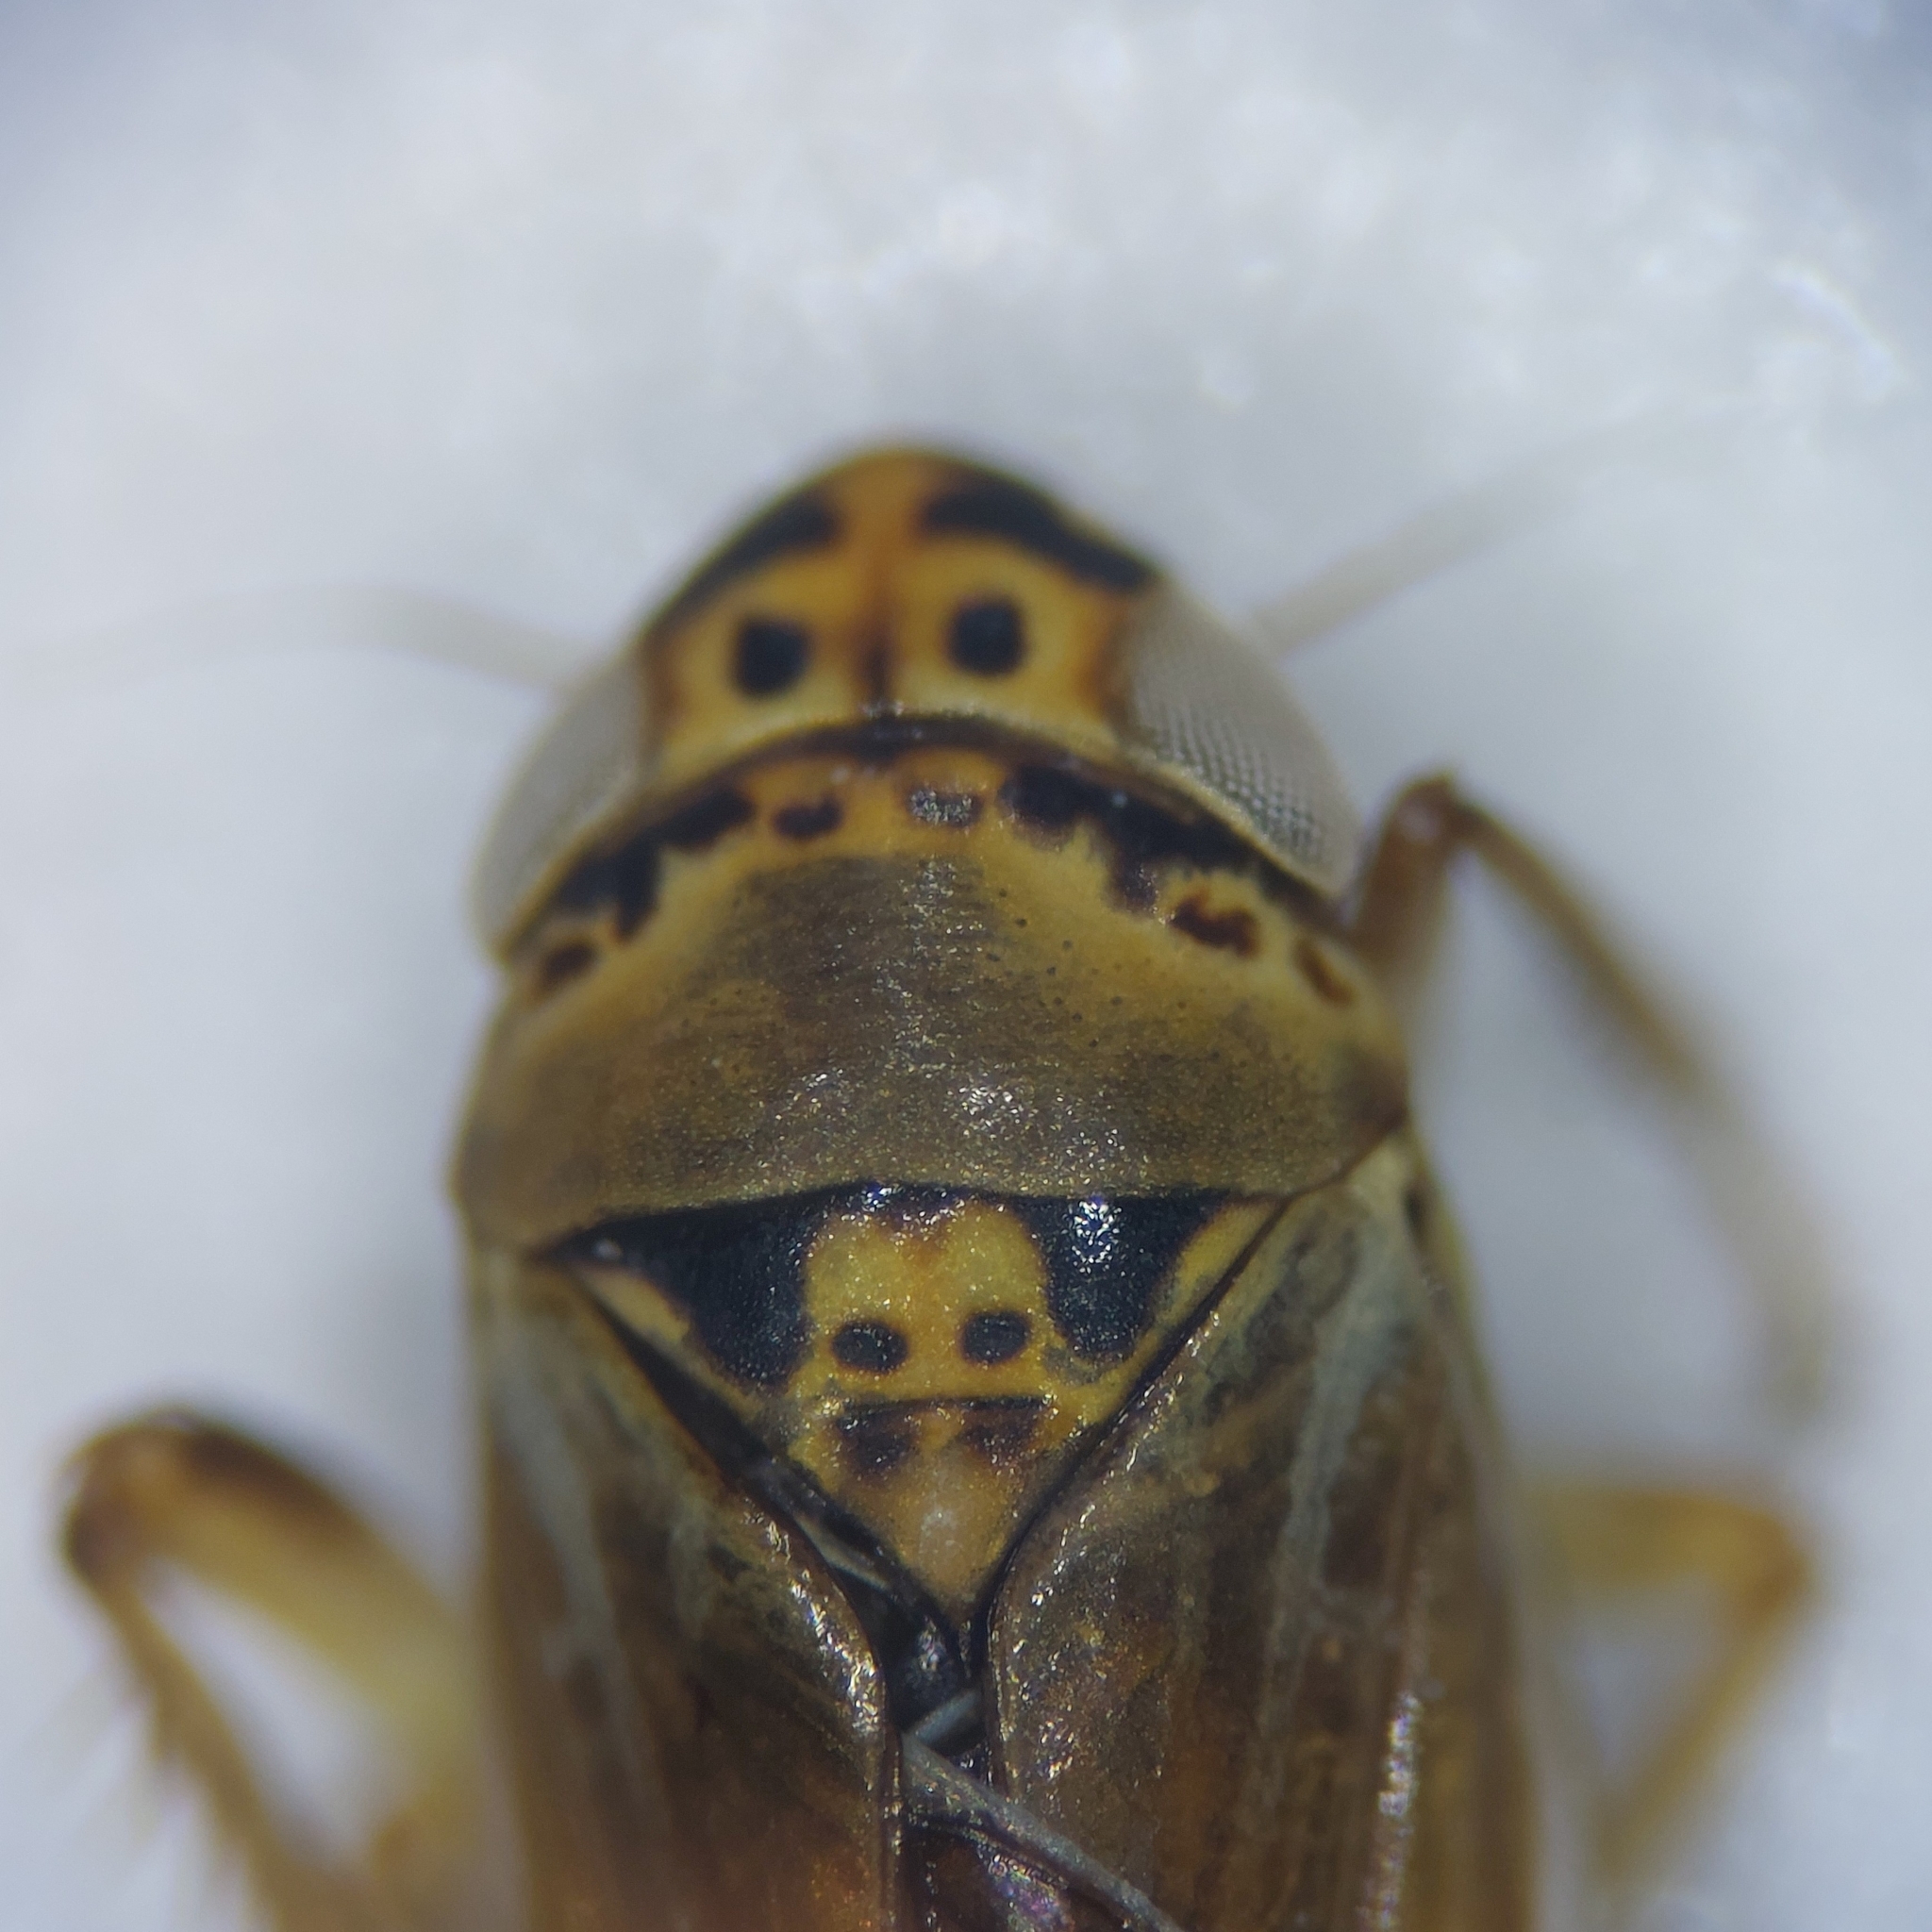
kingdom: Animalia
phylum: Arthropoda
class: Insecta
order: Hemiptera
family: Cicadellidae
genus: Macrosteles
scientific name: Macrosteles cyane
